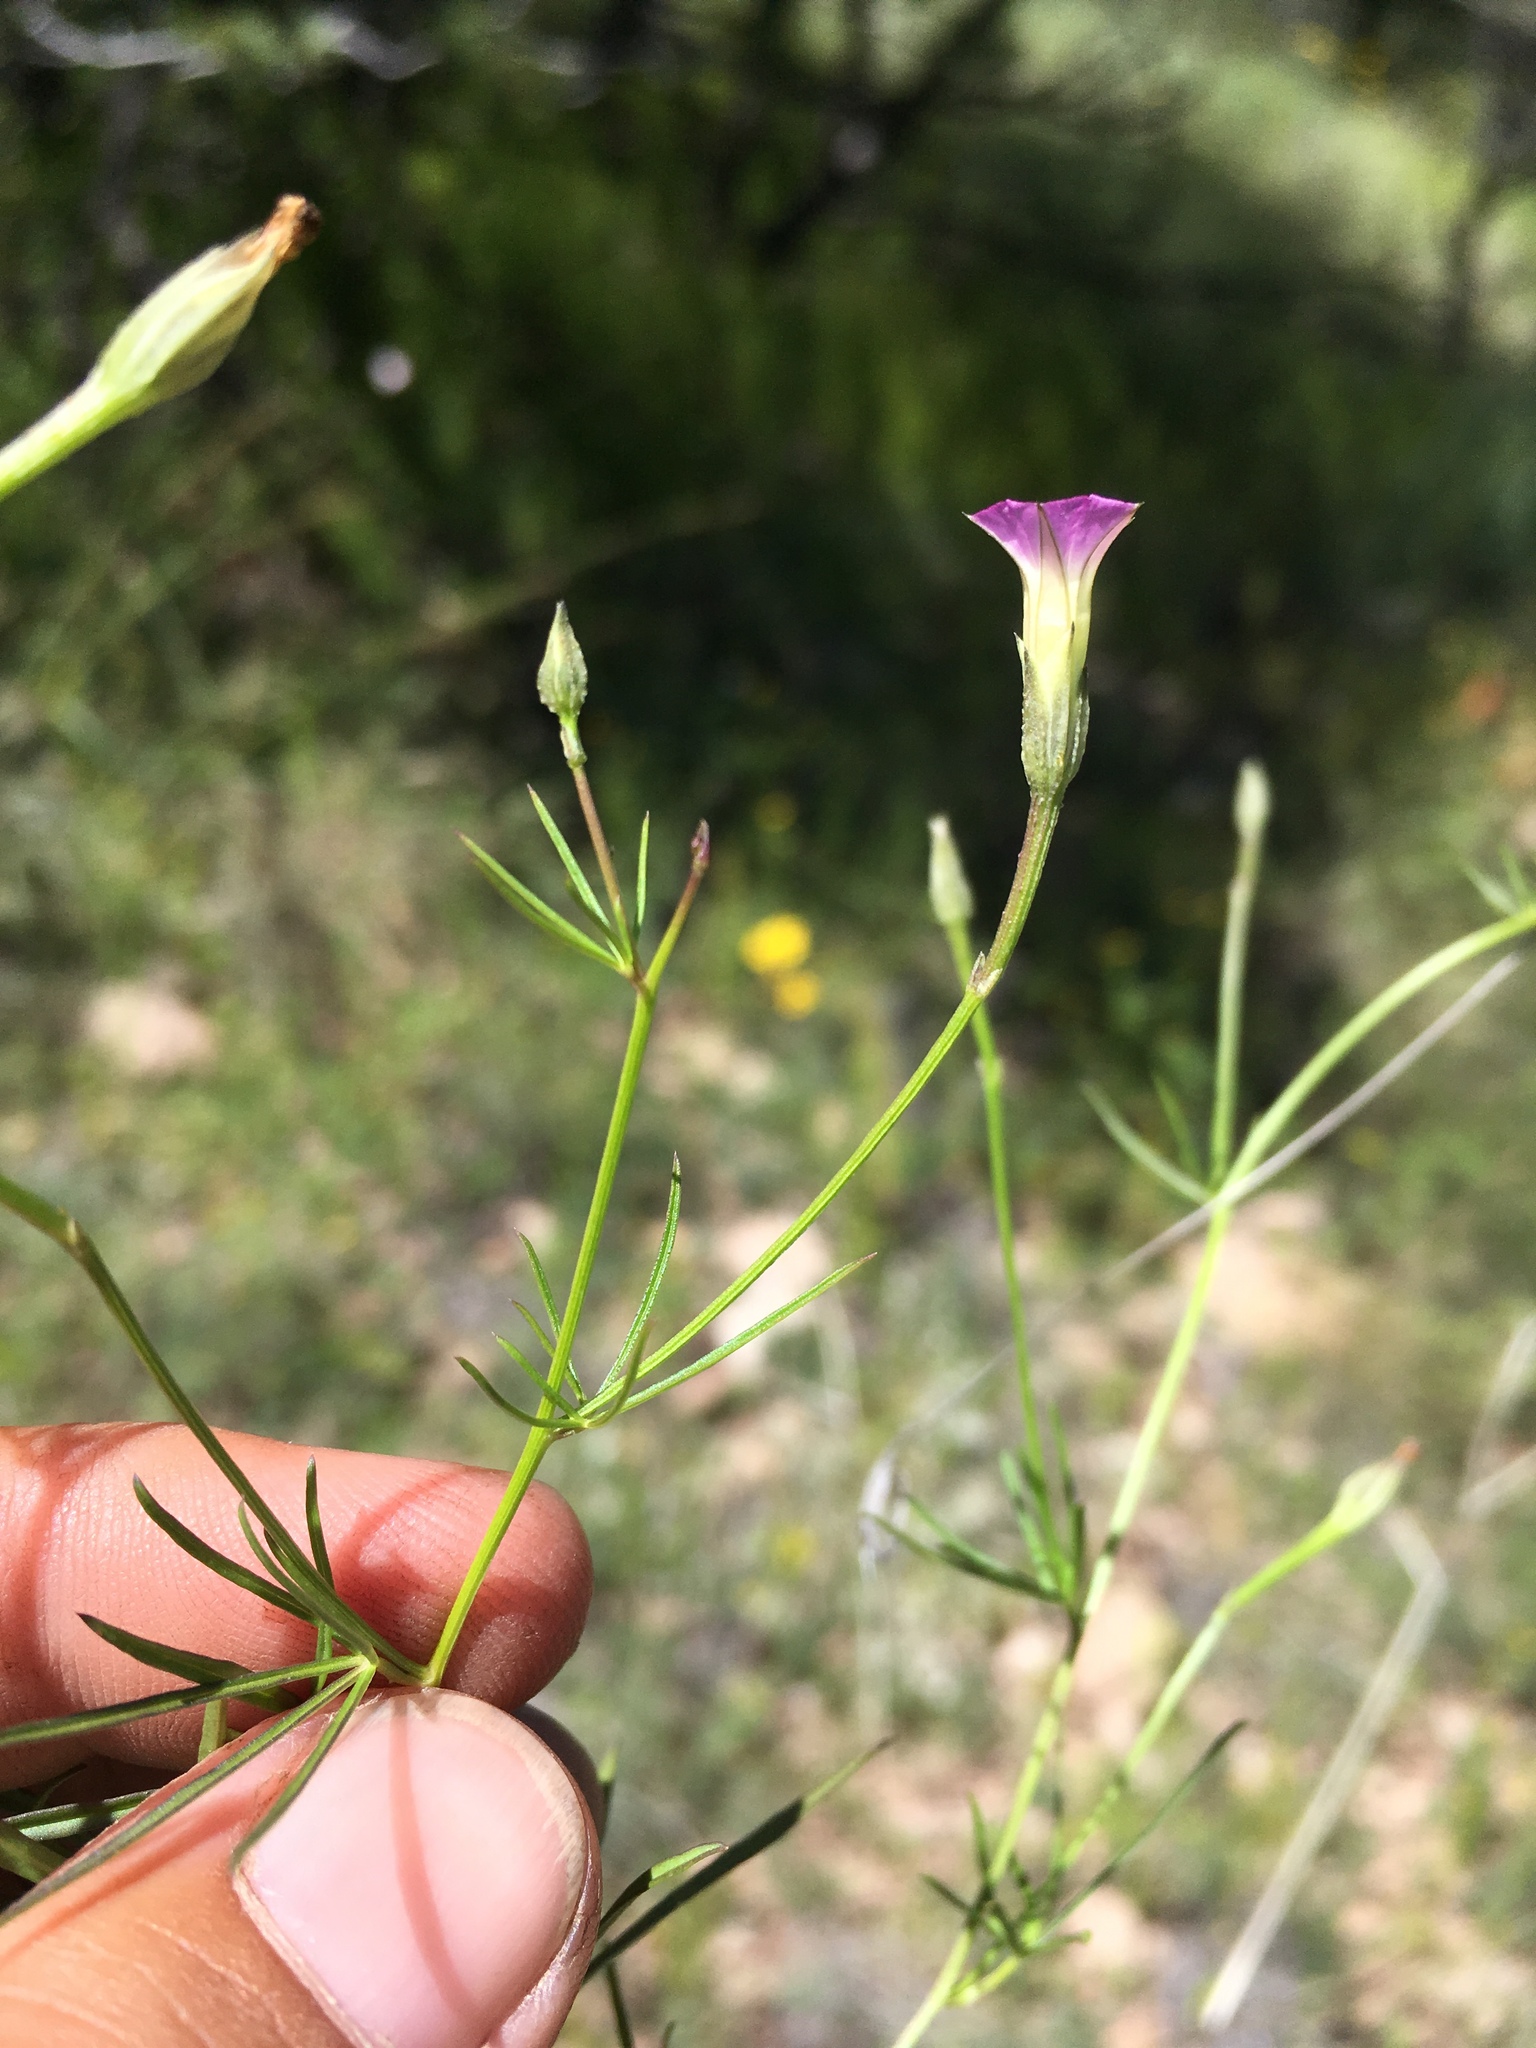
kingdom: Plantae
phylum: Tracheophyta
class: Magnoliopsida
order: Solanales
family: Convolvulaceae
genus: Ipomoea
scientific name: Ipomoea costellata
